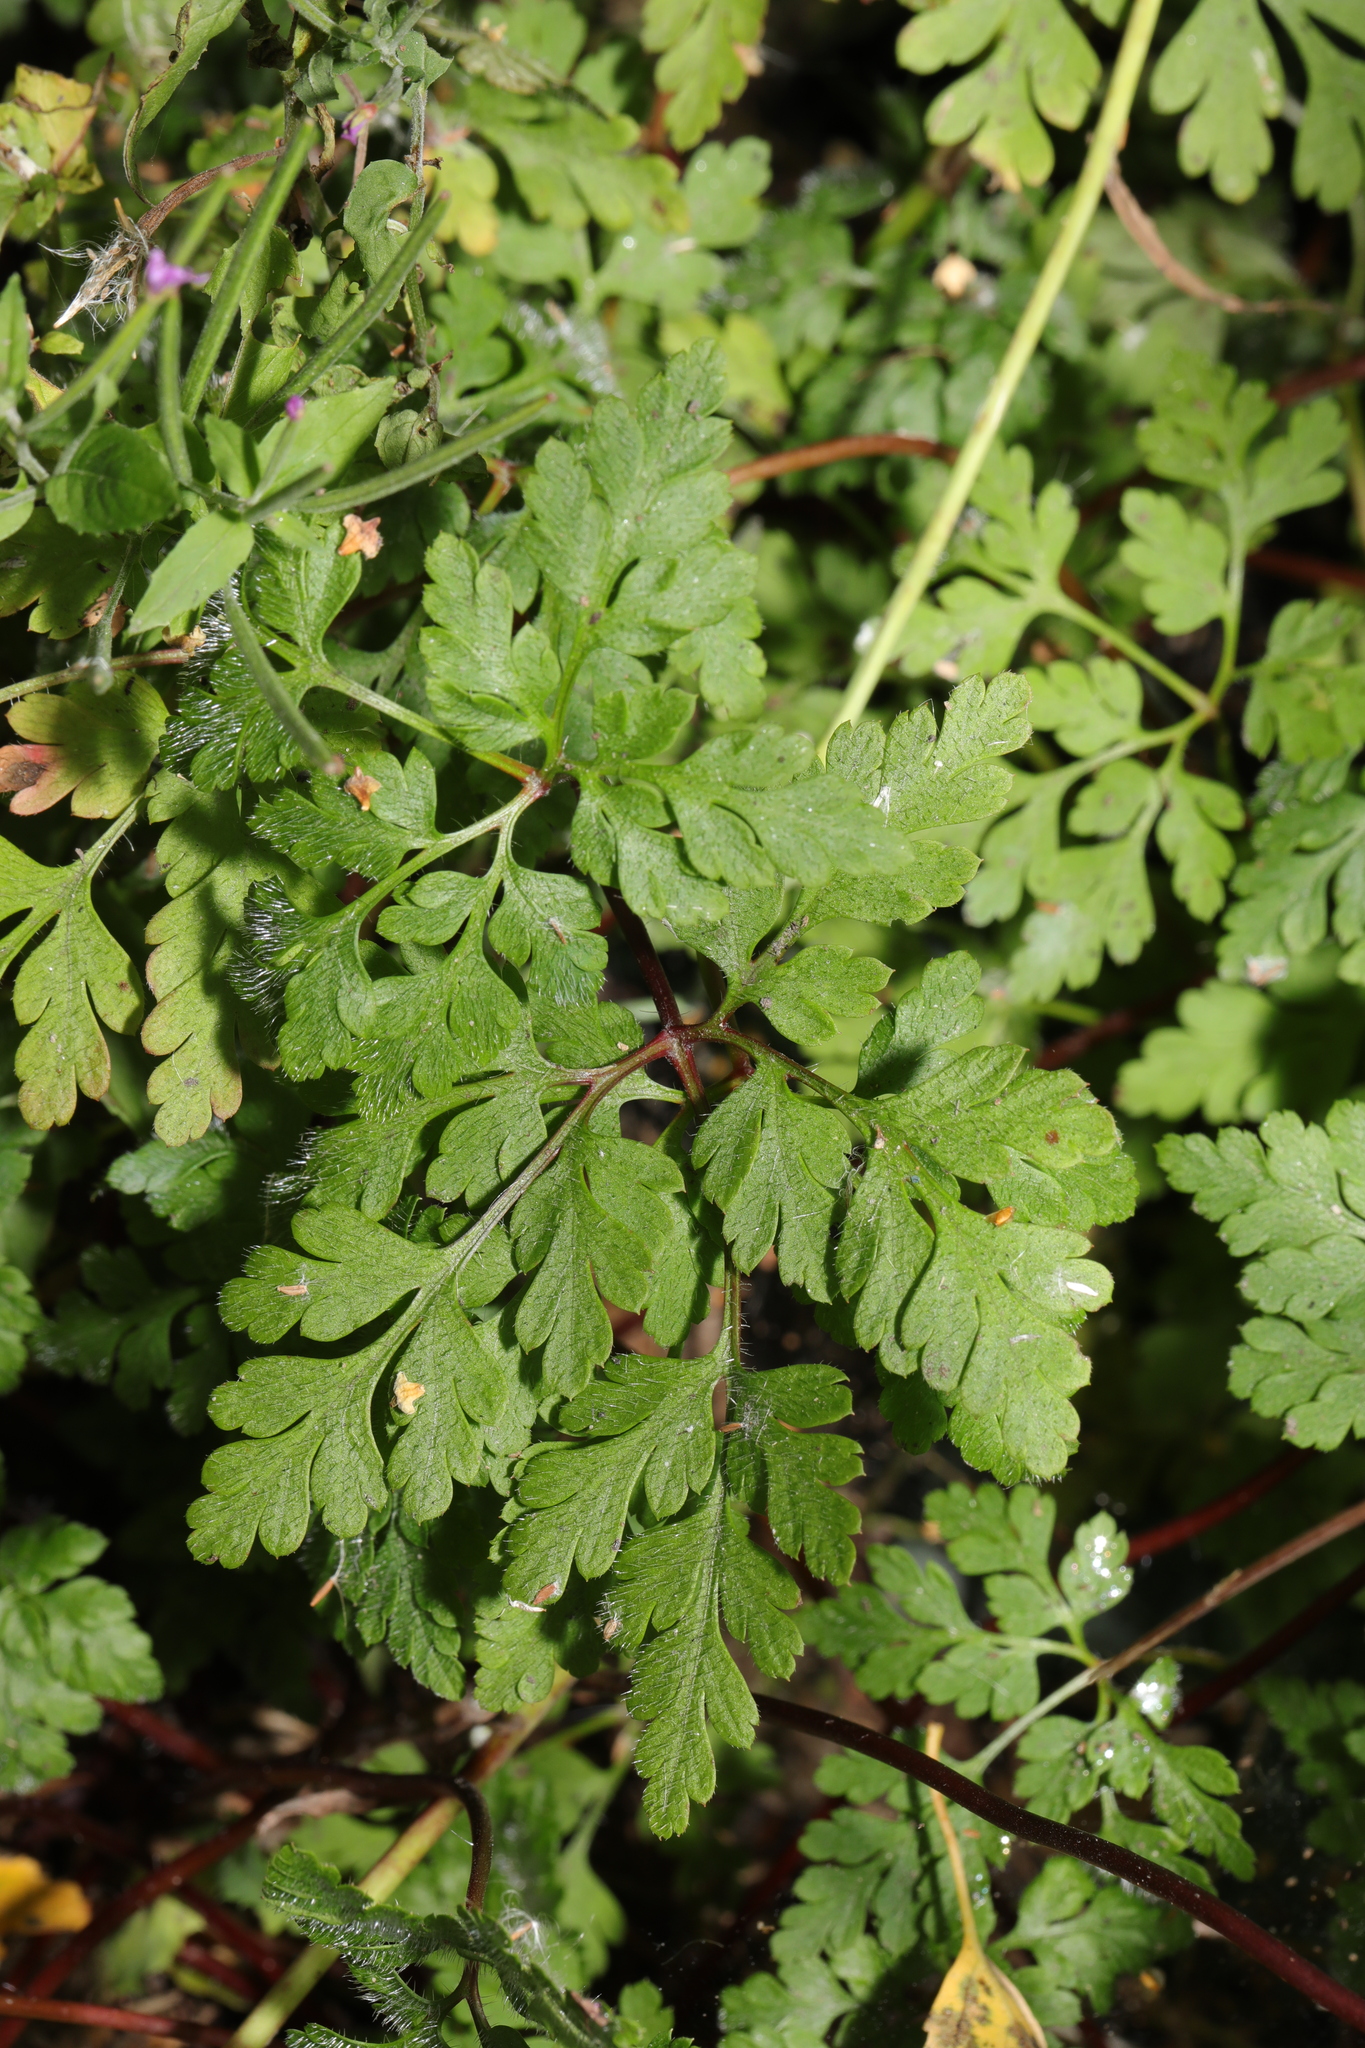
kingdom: Plantae
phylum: Tracheophyta
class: Magnoliopsida
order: Geraniales
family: Geraniaceae
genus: Geranium
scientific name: Geranium robertianum
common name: Herb-robert
